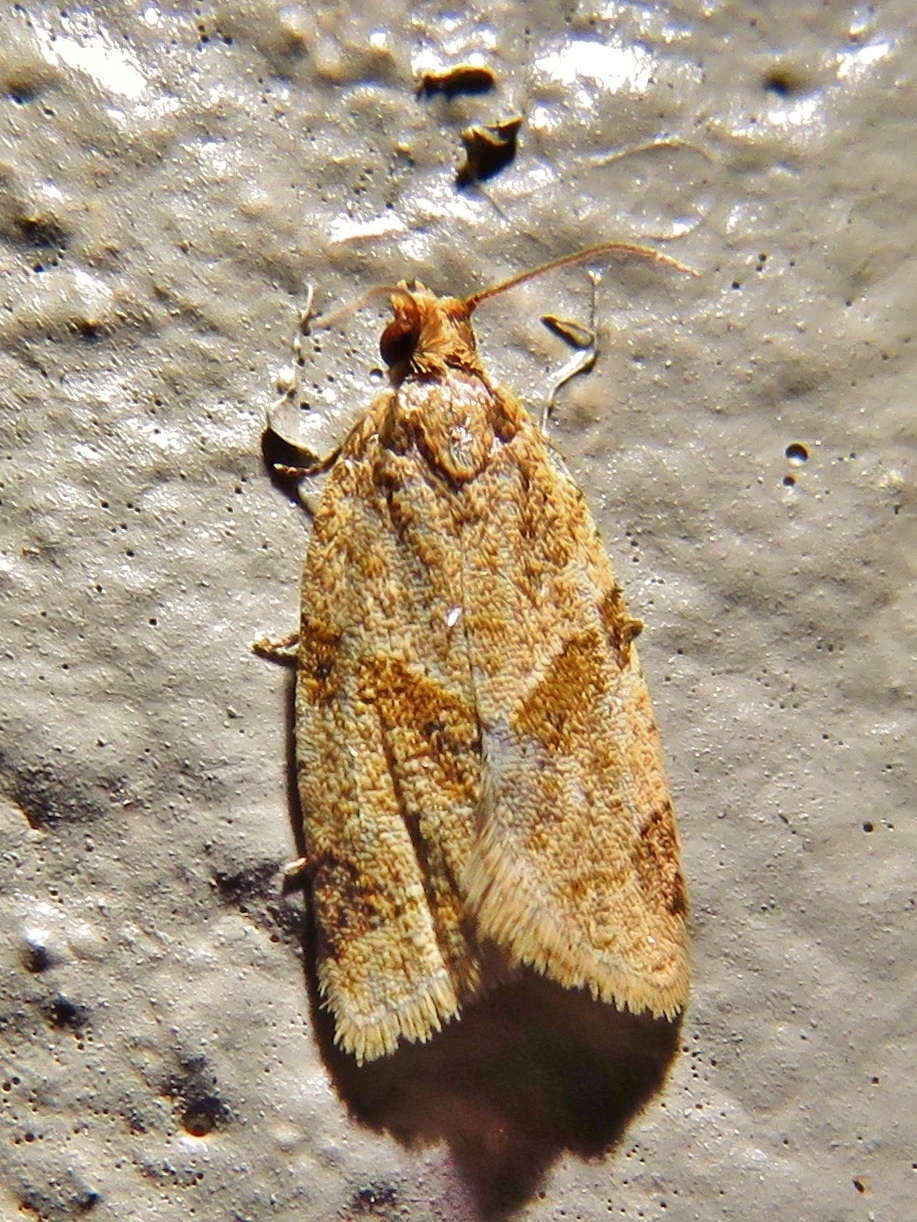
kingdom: Animalia
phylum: Arthropoda
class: Insecta
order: Lepidoptera
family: Tortricidae
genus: Clepsis
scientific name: Clepsis peritana
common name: Garden tortrix
